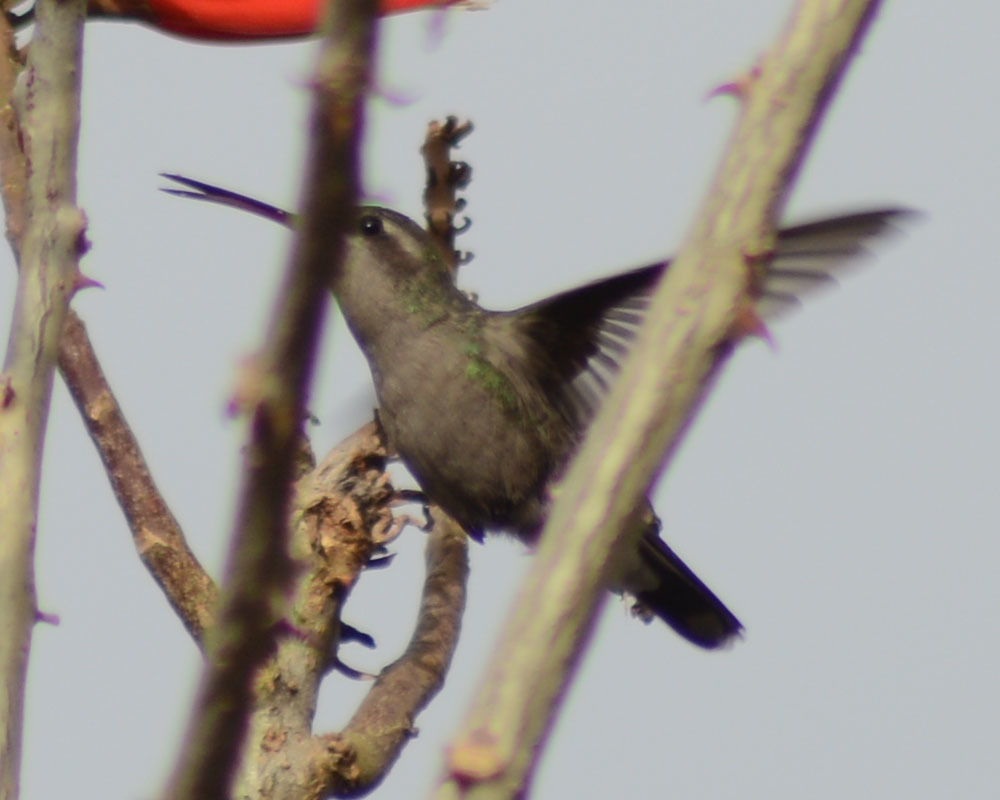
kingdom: Animalia
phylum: Chordata
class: Aves
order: Apodiformes
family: Trochilidae
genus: Cynanthus
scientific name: Cynanthus latirostris
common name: Broad-billed hummingbird
